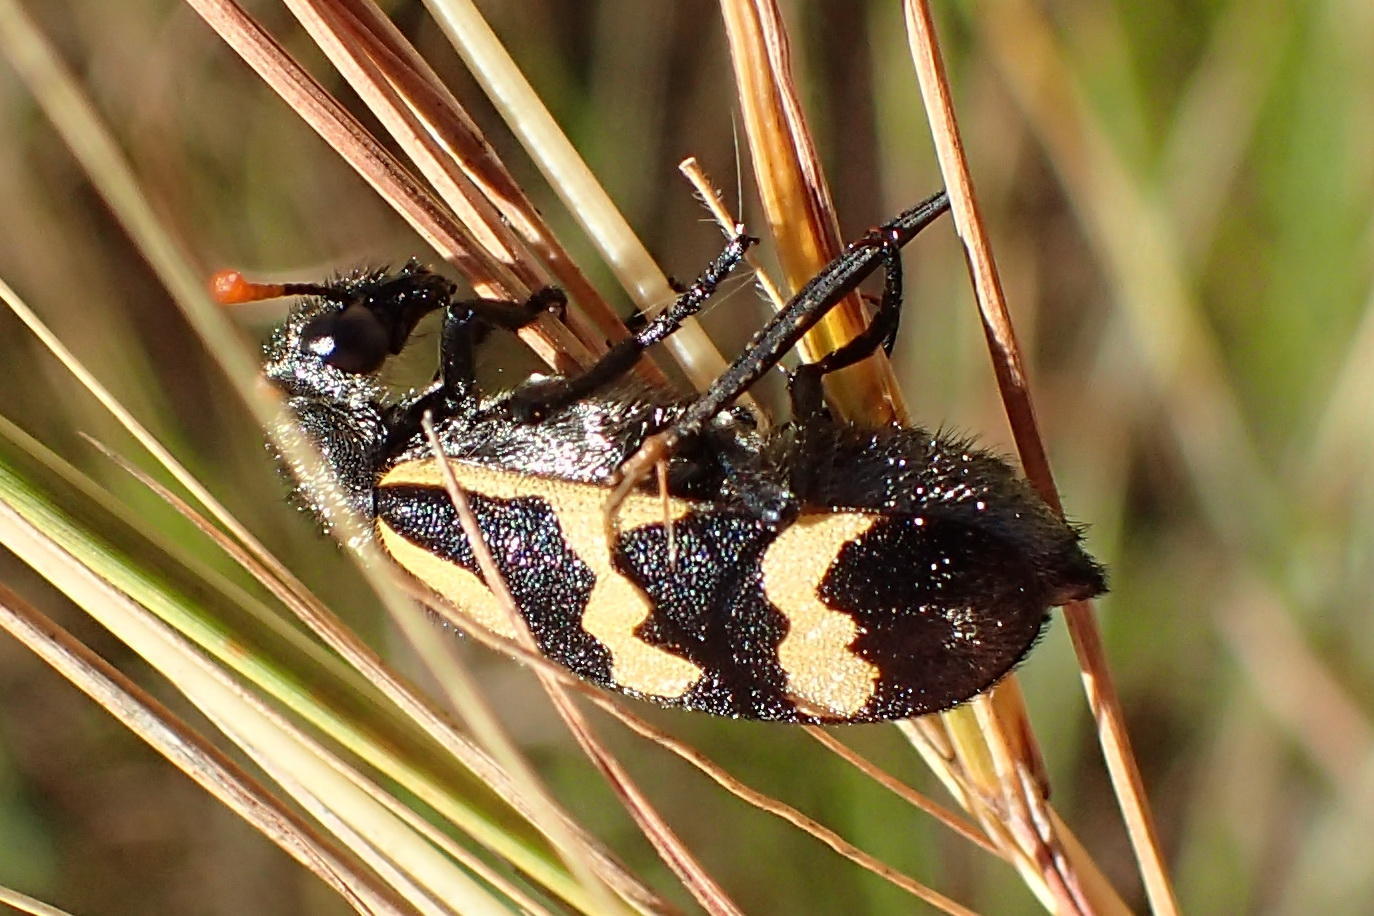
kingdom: Animalia
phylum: Arthropoda
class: Insecta
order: Coleoptera
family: Meloidae
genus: Meloe
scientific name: Meloe lunata
